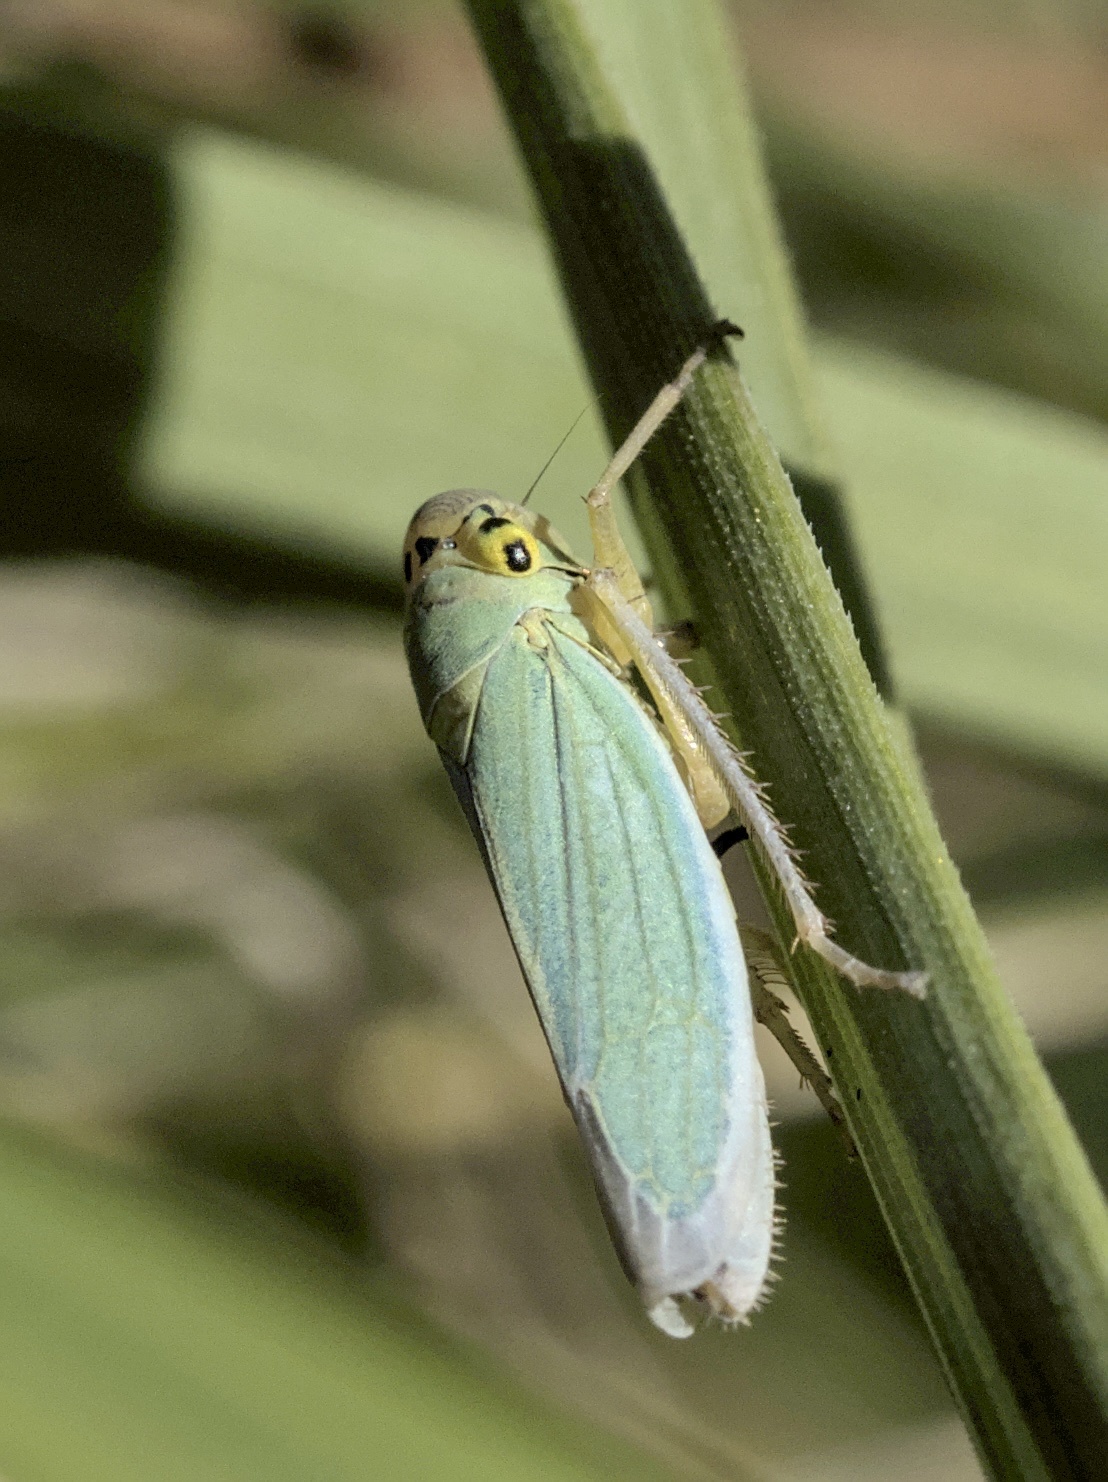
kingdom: Animalia
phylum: Arthropoda
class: Insecta
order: Hemiptera
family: Cicadellidae
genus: Cicadella
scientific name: Cicadella viridis
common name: Leafhopper
